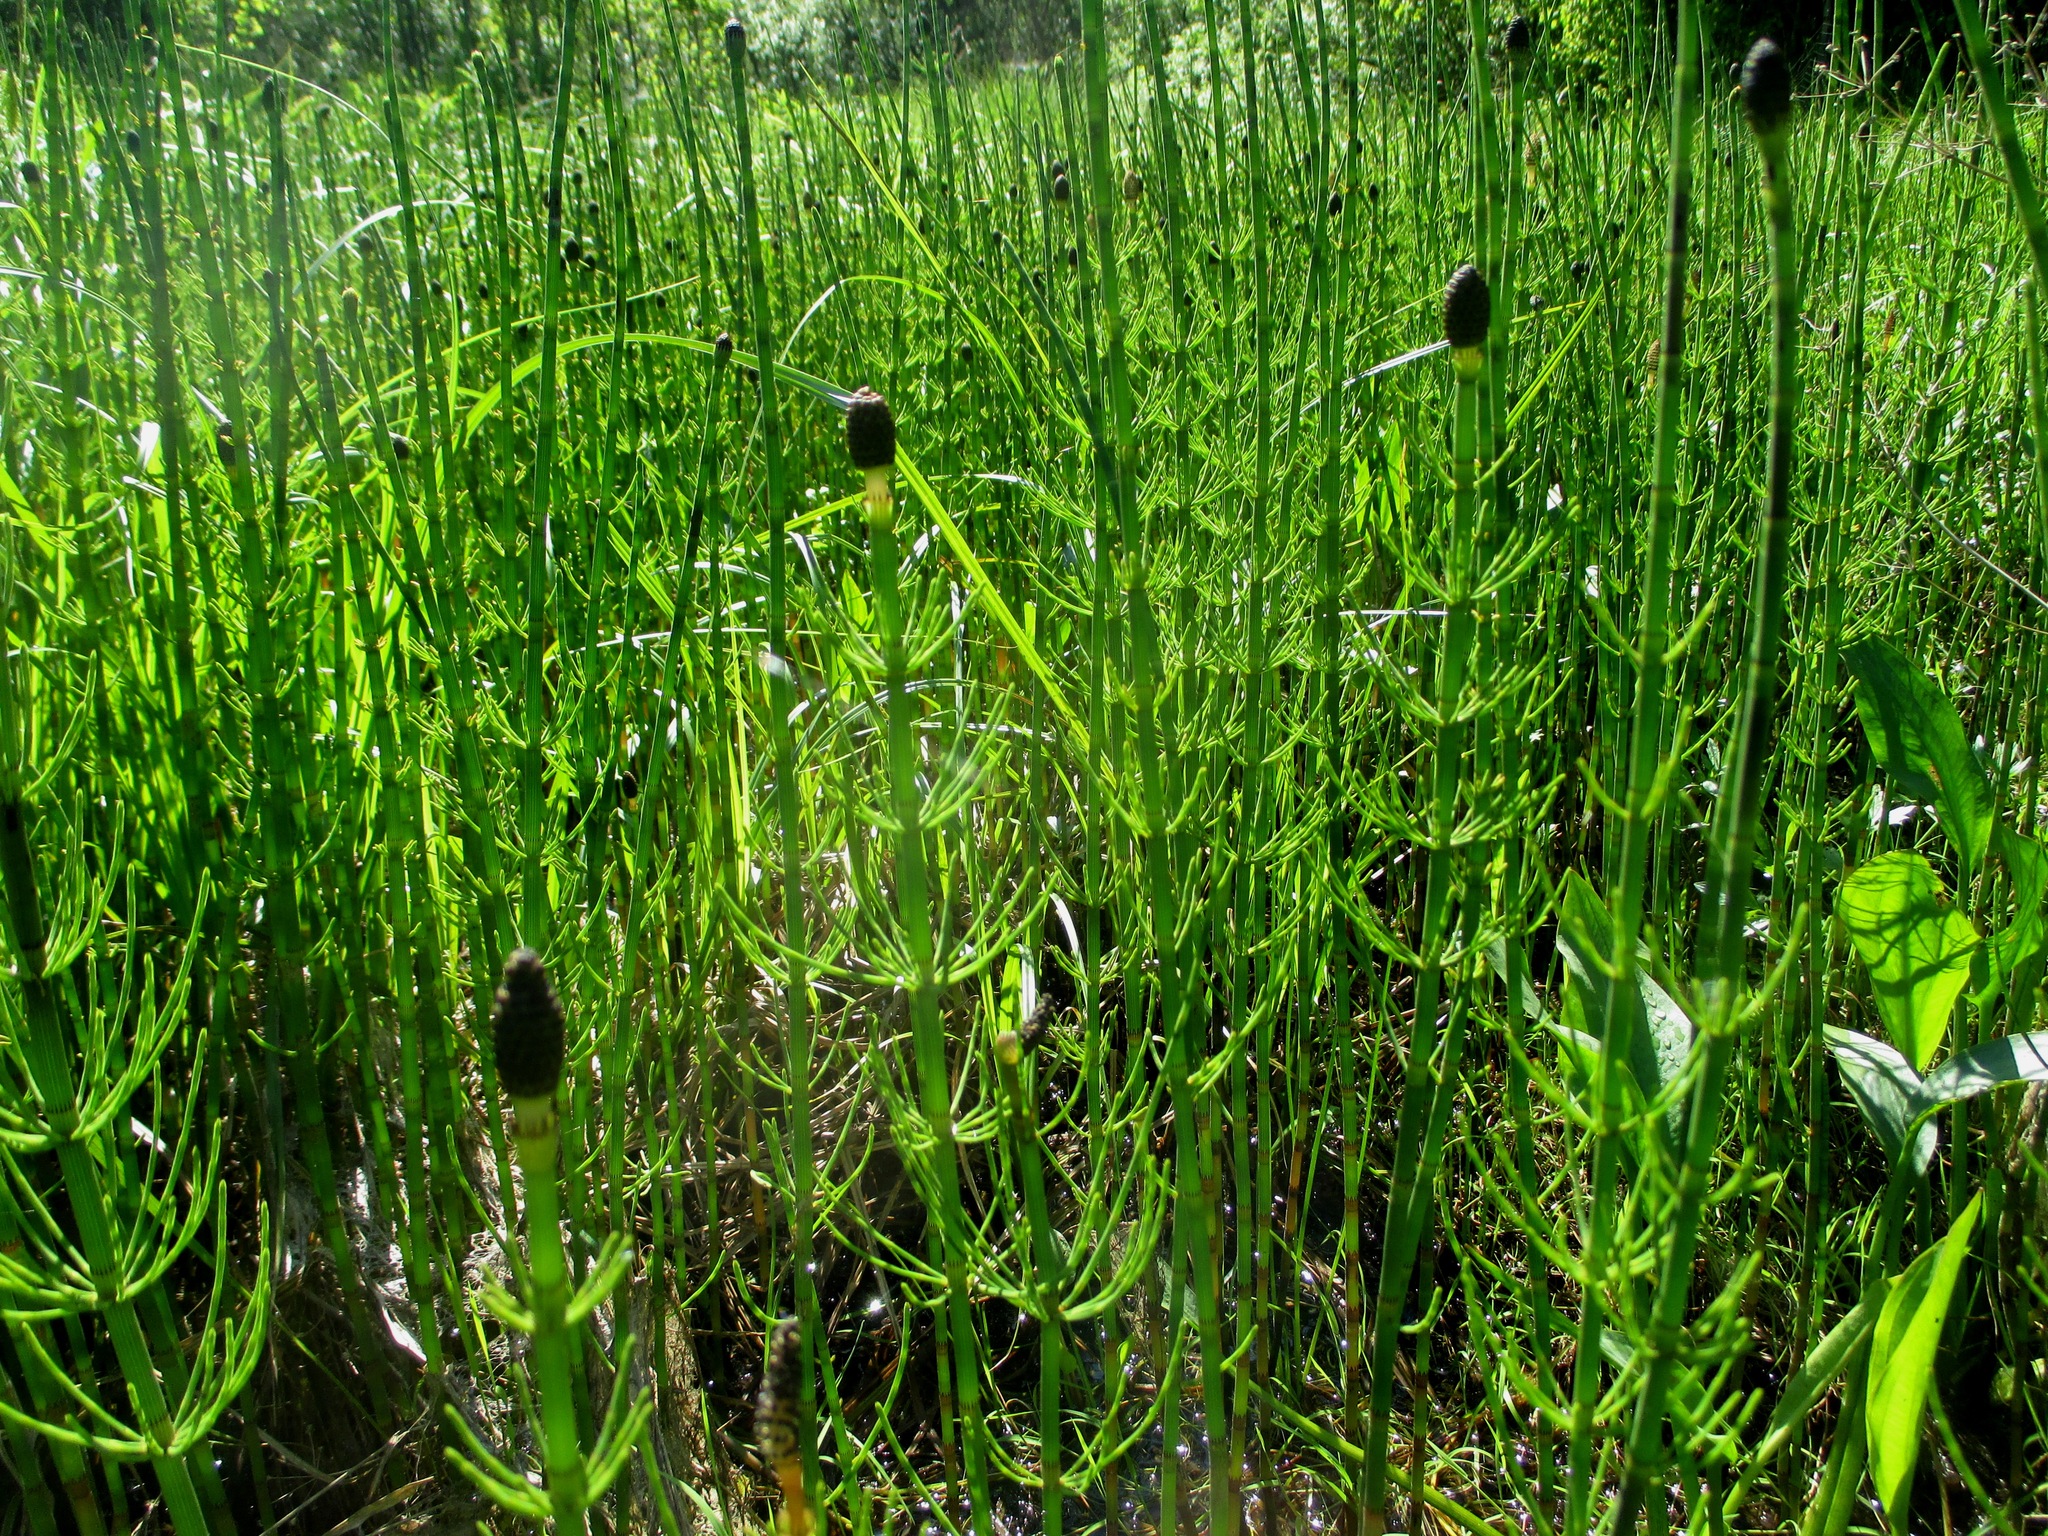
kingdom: Plantae
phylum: Tracheophyta
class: Polypodiopsida
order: Equisetales
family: Equisetaceae
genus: Equisetum
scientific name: Equisetum fluviatile
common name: Water horsetail
